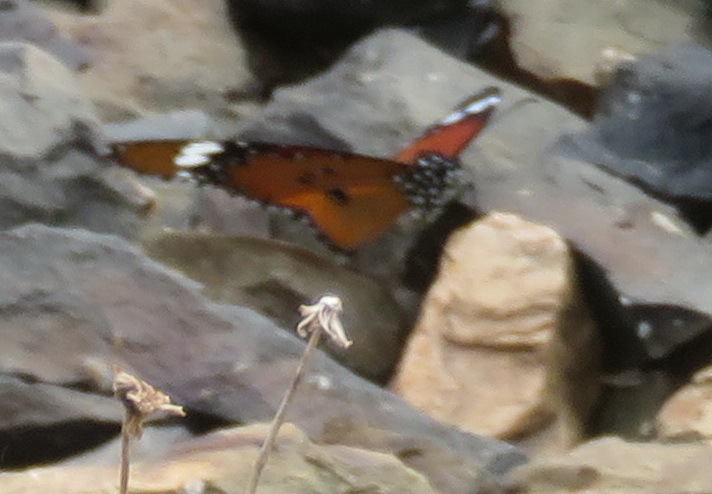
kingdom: Animalia
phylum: Arthropoda
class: Insecta
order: Lepidoptera
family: Nymphalidae
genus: Danaus
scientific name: Danaus chrysippus
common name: Plain tiger
